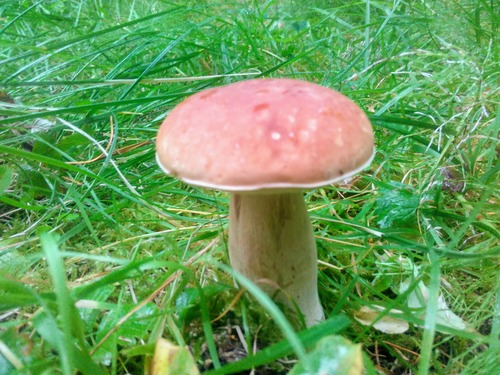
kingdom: Fungi
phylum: Basidiomycota
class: Agaricomycetes
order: Boletales
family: Boletaceae
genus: Boletus
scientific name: Boletus edulis
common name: Cep
